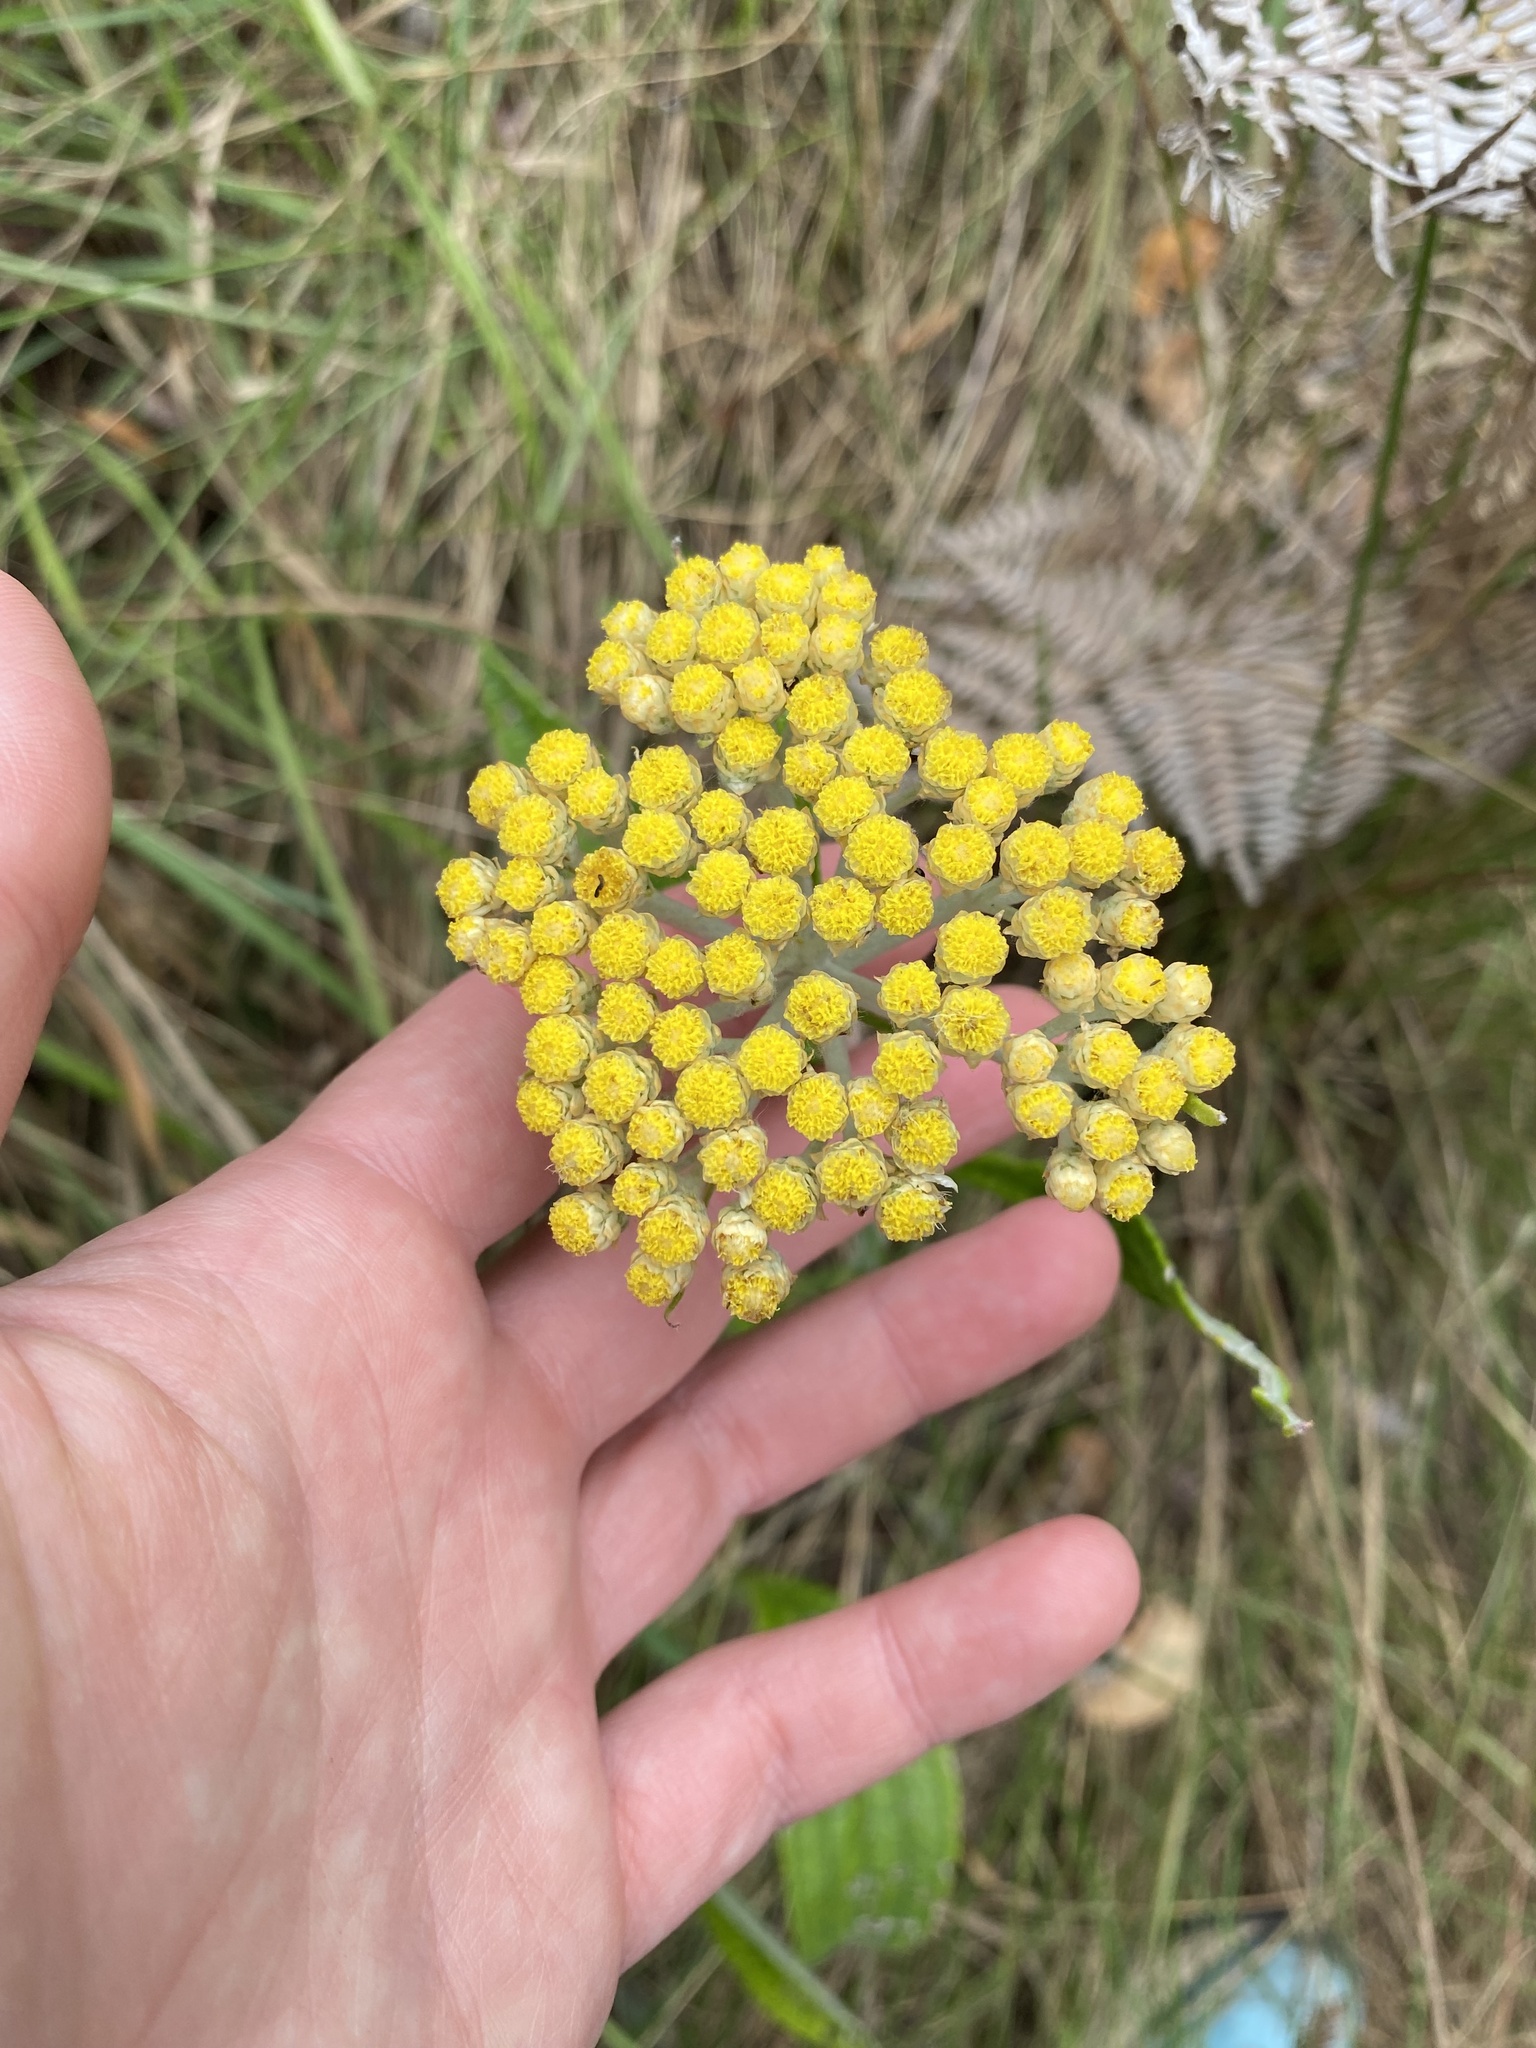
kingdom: Plantae
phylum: Tracheophyta
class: Magnoliopsida
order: Asterales
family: Asteraceae
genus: Helichrysum
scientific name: Helichrysum nudifolium
